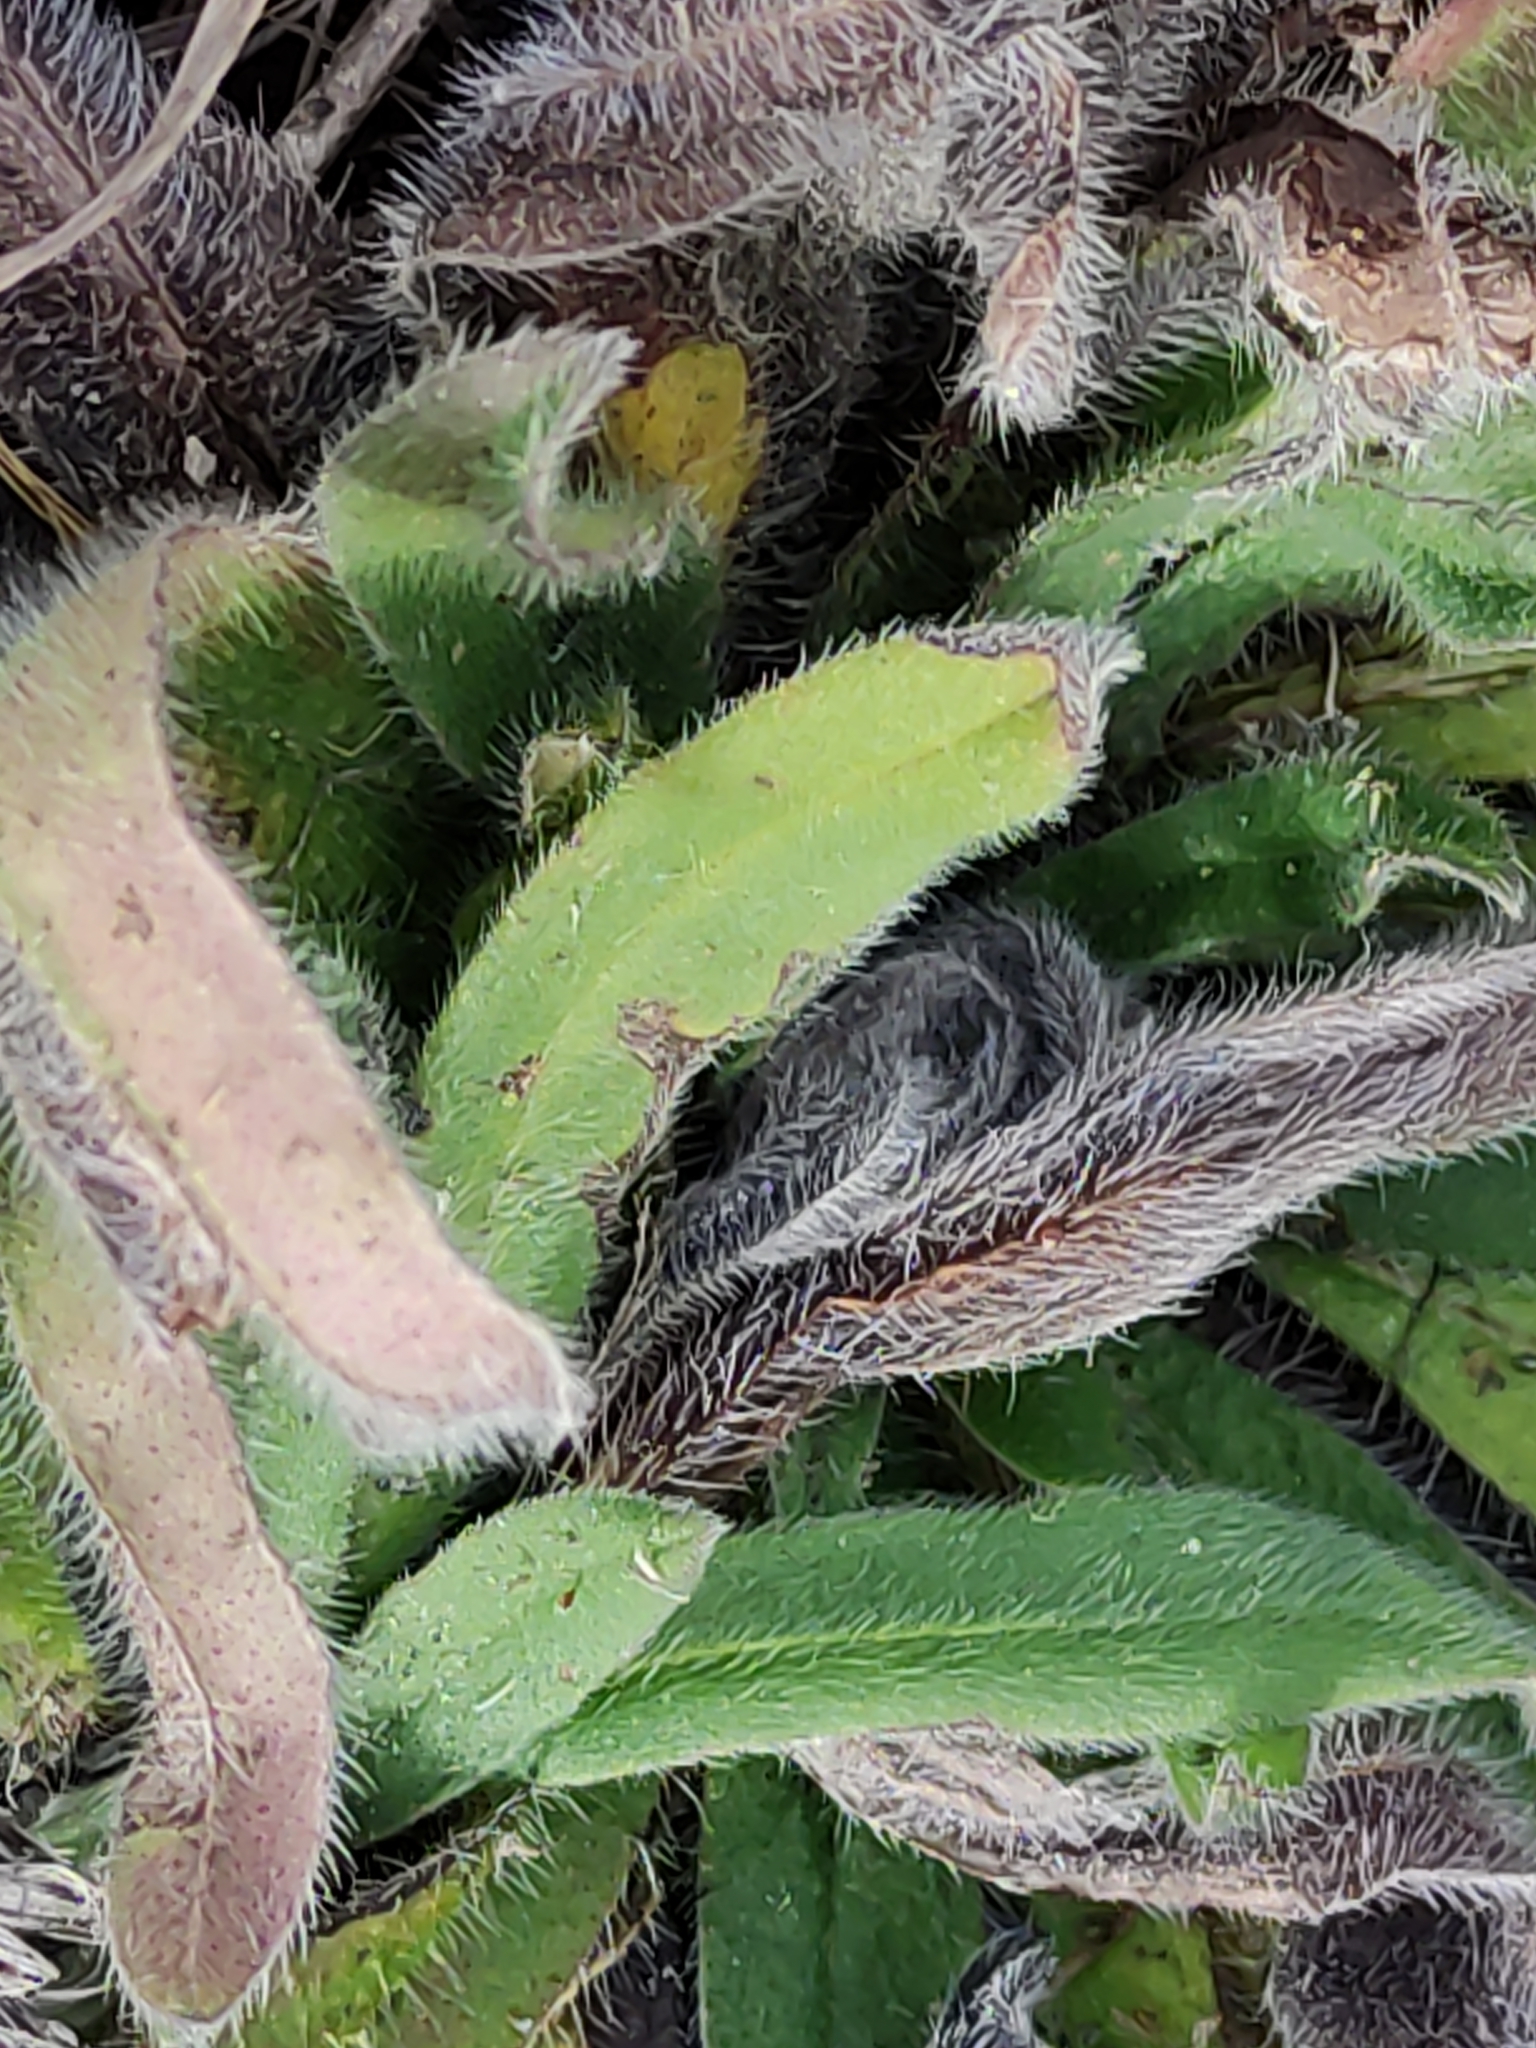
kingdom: Plantae
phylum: Tracheophyta
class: Magnoliopsida
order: Boraginales
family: Boraginaceae
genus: Echium
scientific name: Echium vulgare
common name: Common viper's bugloss
